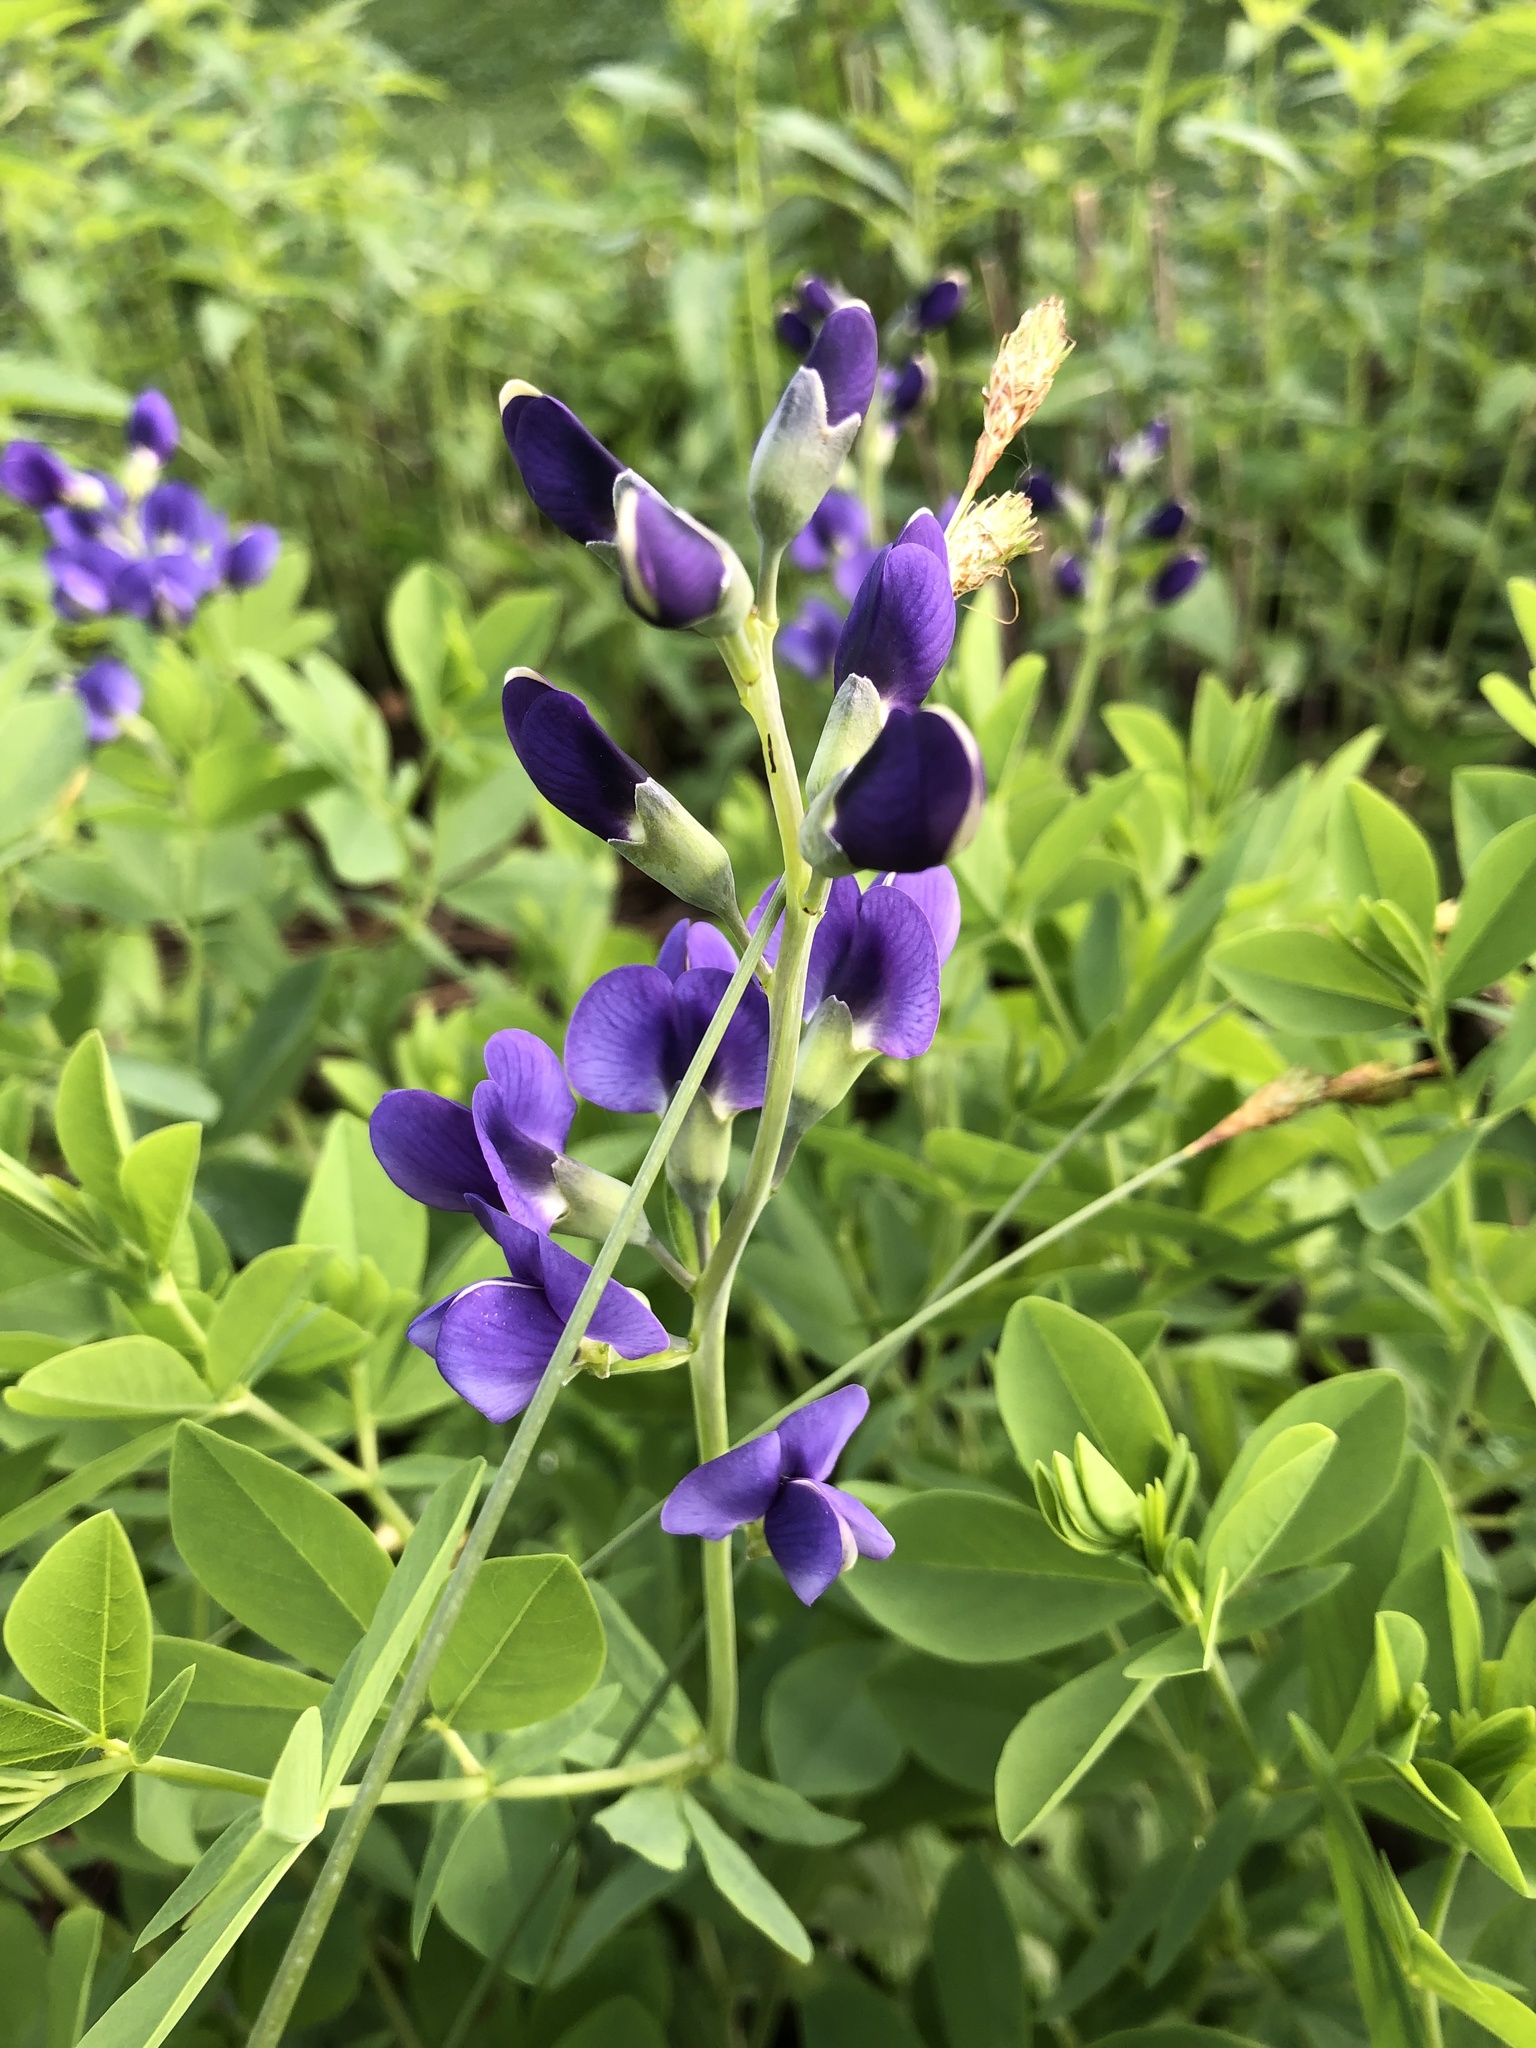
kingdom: Plantae
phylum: Tracheophyta
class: Magnoliopsida
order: Fabales
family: Fabaceae
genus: Baptisia
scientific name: Baptisia australis
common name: Blue false indigo
